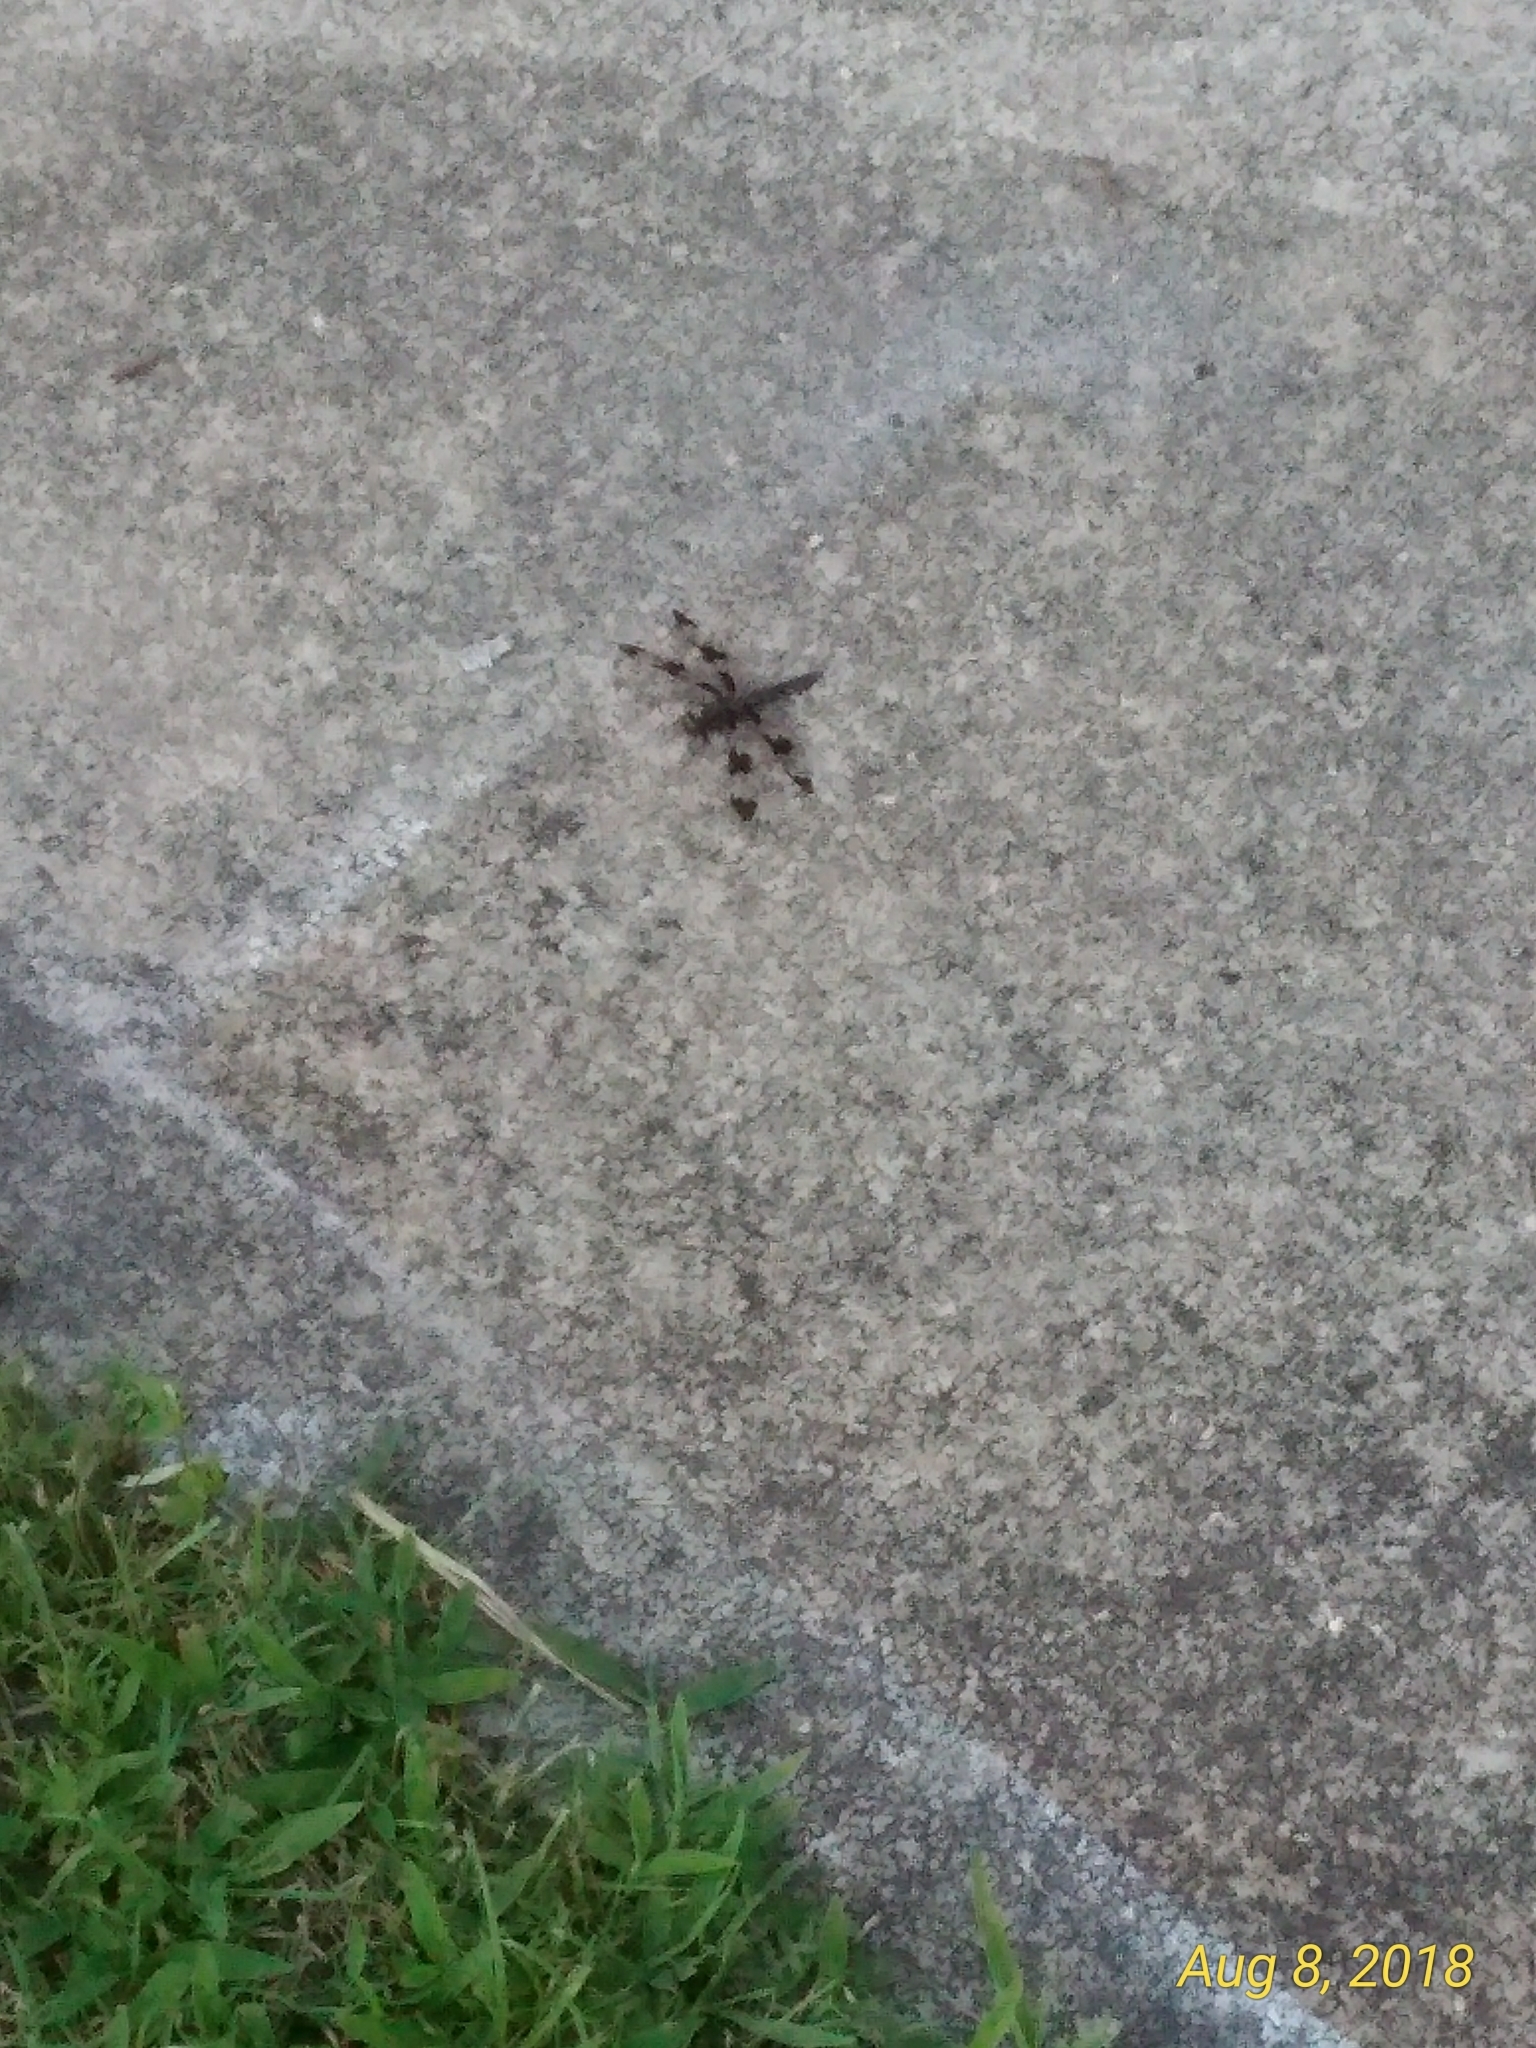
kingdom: Animalia
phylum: Arthropoda
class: Insecta
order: Odonata
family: Libellulidae
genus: Plathemis
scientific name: Plathemis lydia
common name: Common whitetail
